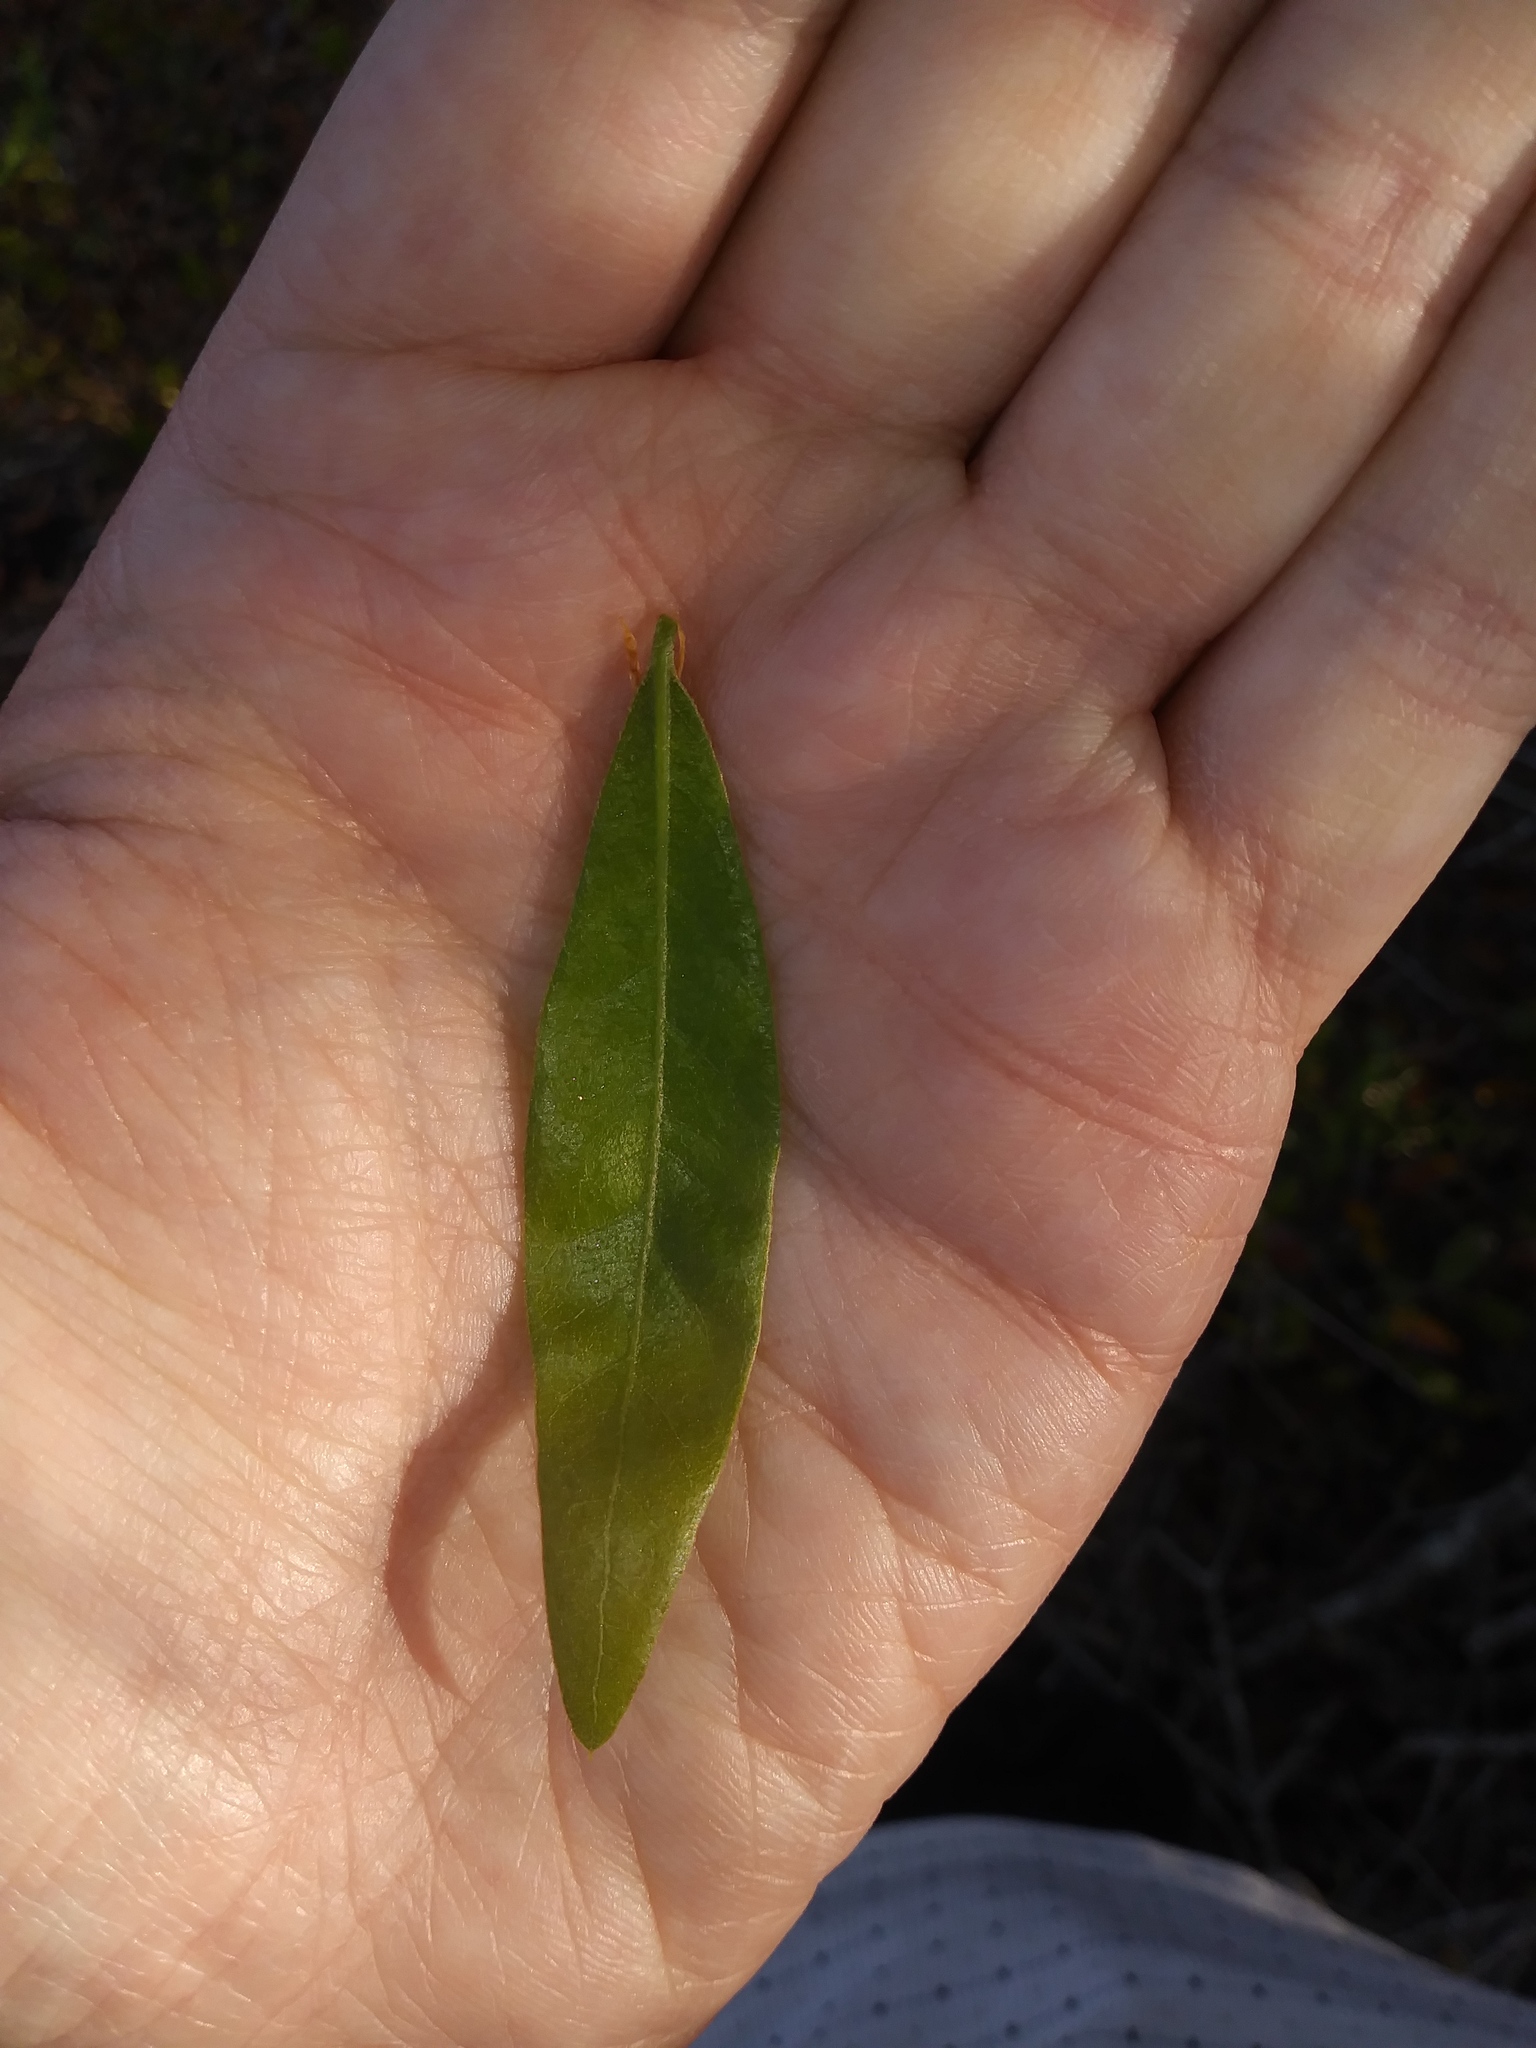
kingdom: Plantae
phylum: Tracheophyta
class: Magnoliopsida
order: Fagales
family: Fagaceae
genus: Quercus
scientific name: Quercus hemisphaerica
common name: Darlington oak
